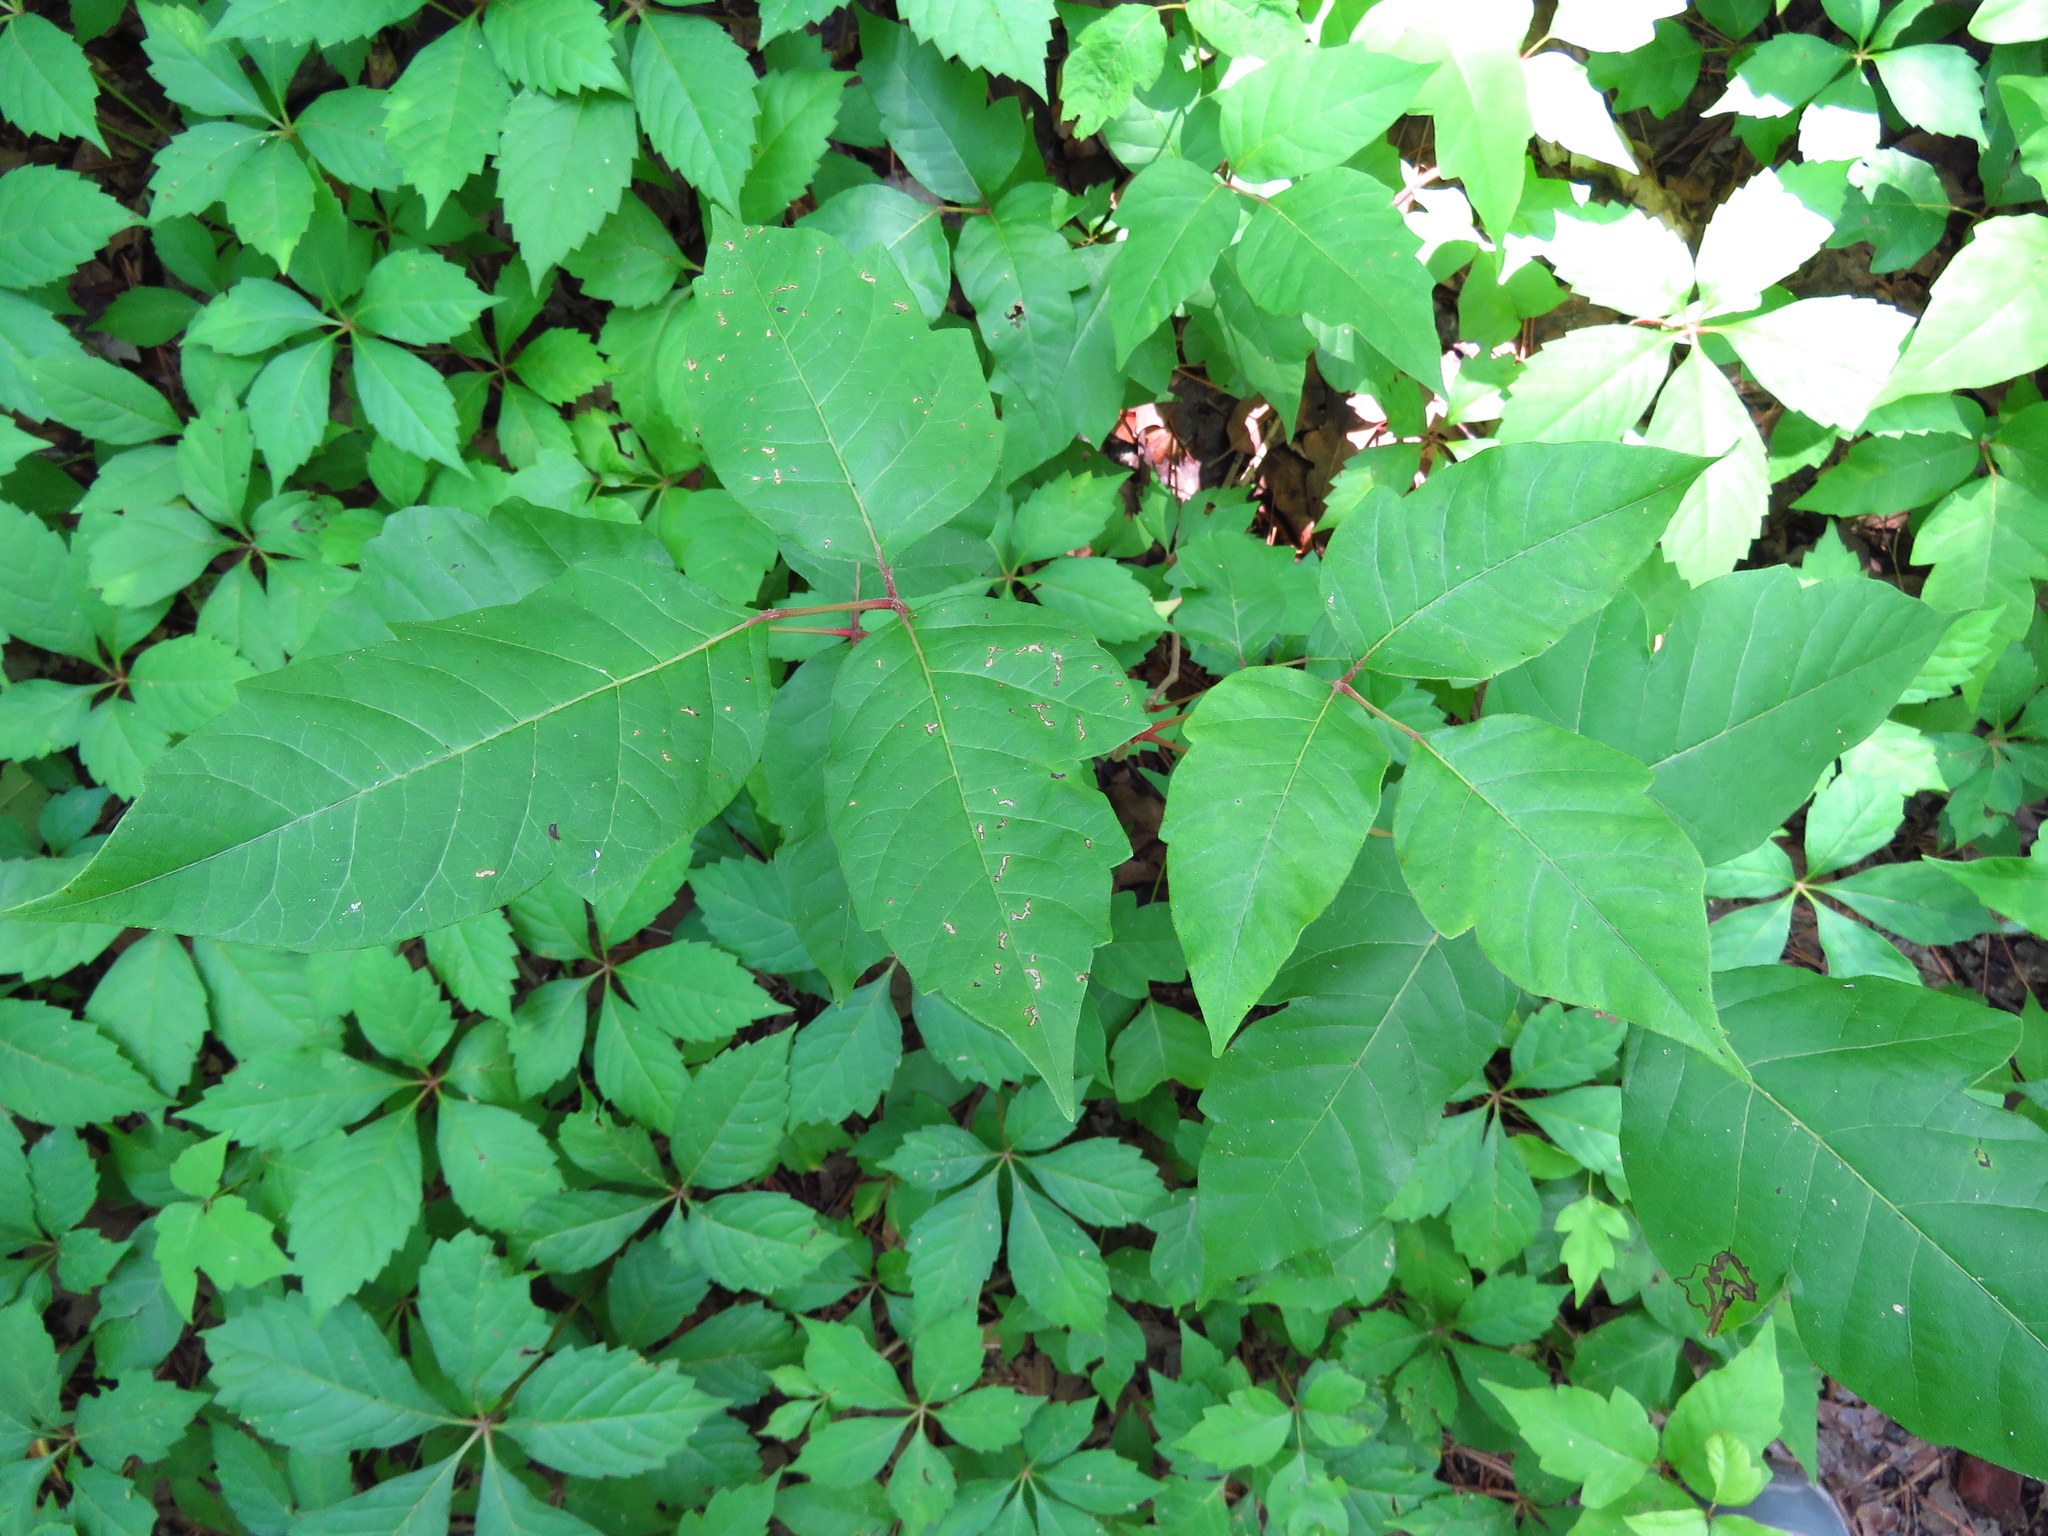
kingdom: Plantae
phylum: Tracheophyta
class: Magnoliopsida
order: Sapindales
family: Anacardiaceae
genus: Toxicodendron
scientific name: Toxicodendron radicans
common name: Poison ivy
